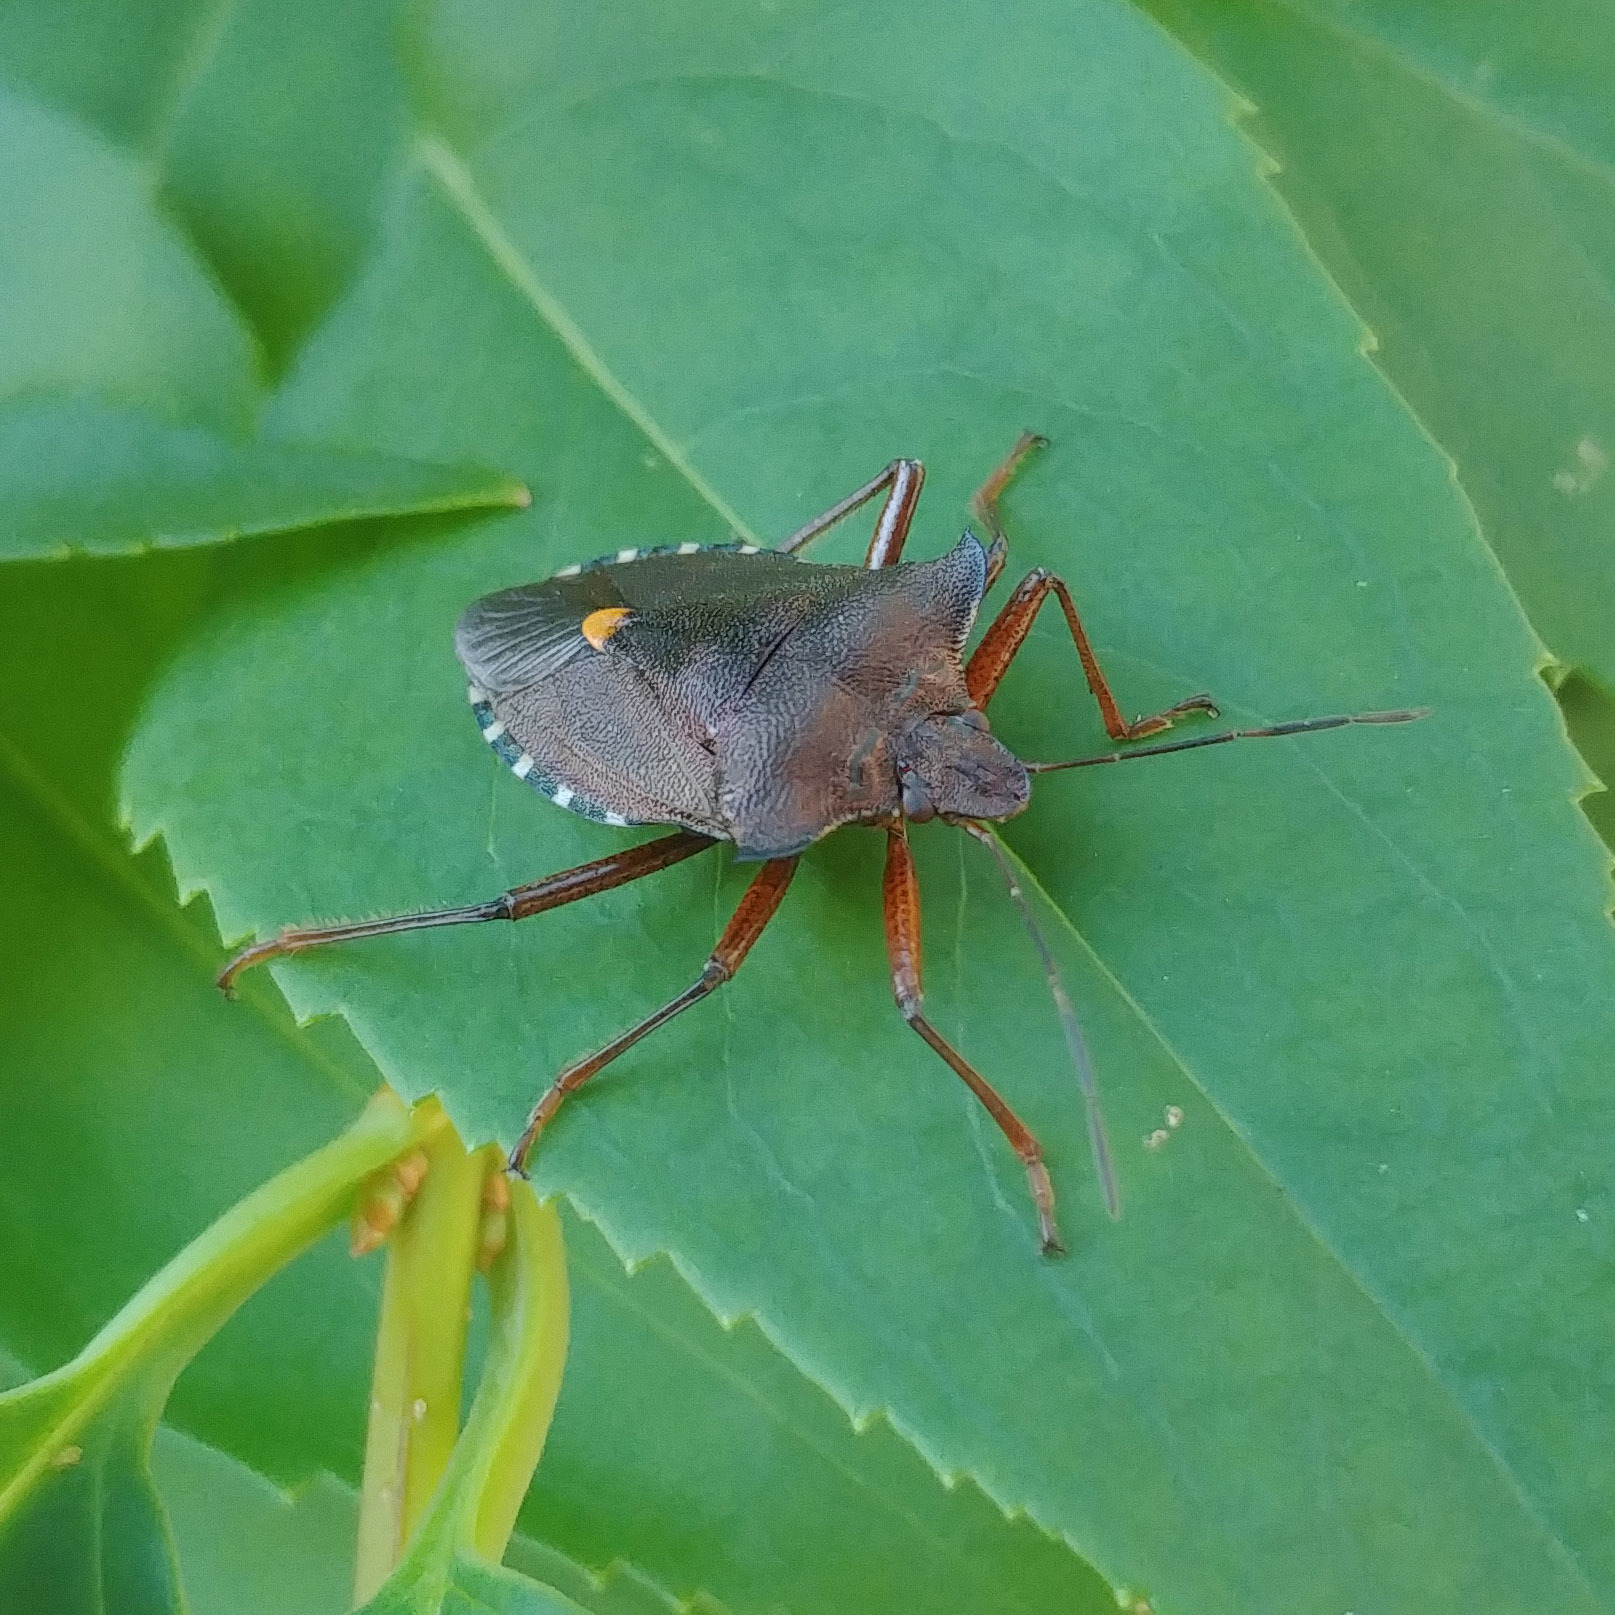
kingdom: Animalia
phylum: Arthropoda
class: Insecta
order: Hemiptera
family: Pentatomidae
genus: Pentatoma
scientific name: Pentatoma rufipes
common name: Forest bug
